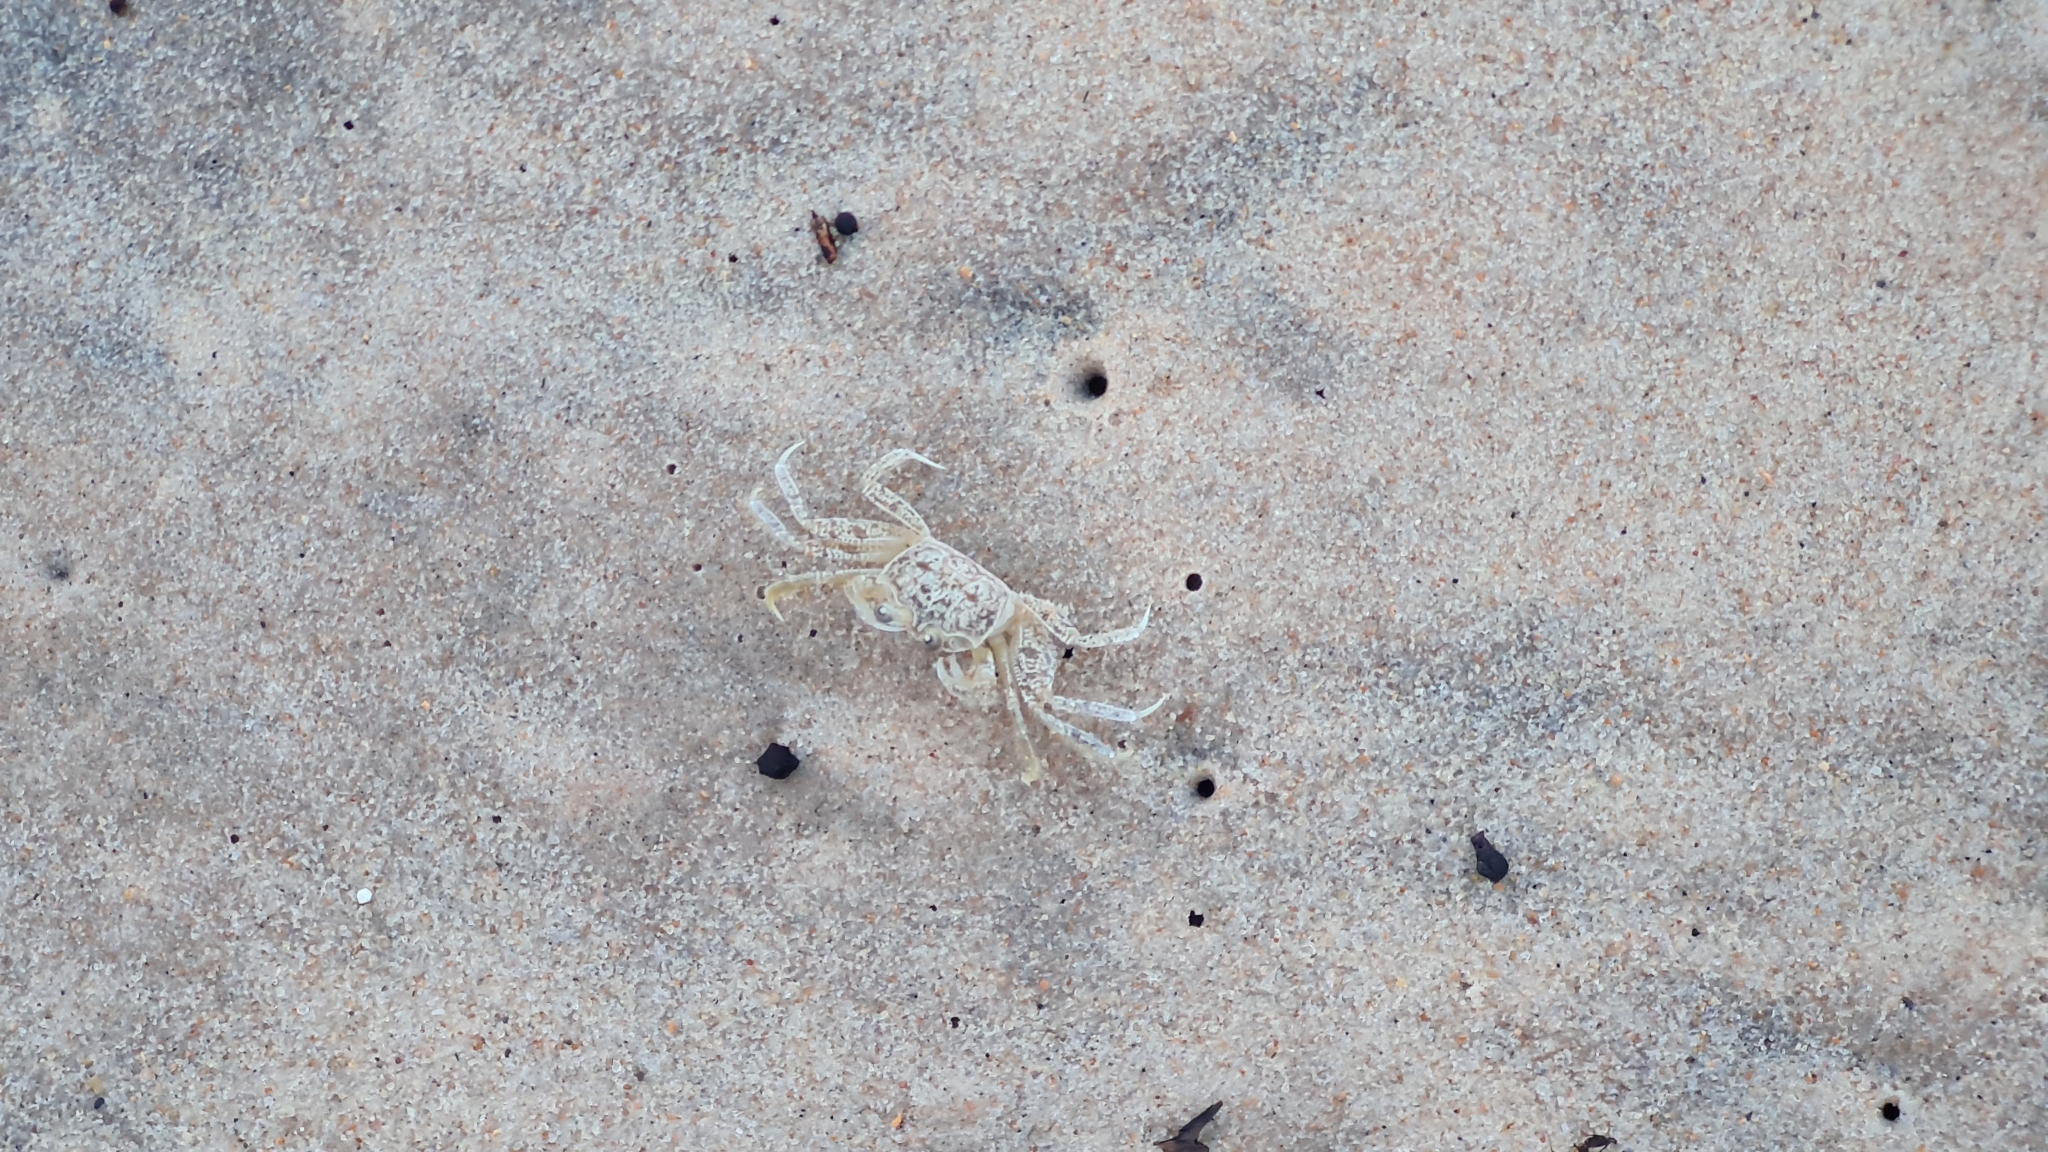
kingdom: Animalia
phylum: Arthropoda
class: Malacostraca
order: Decapoda
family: Ocypodidae
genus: Ocypode
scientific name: Ocypode quadrata
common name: Ghost crab
